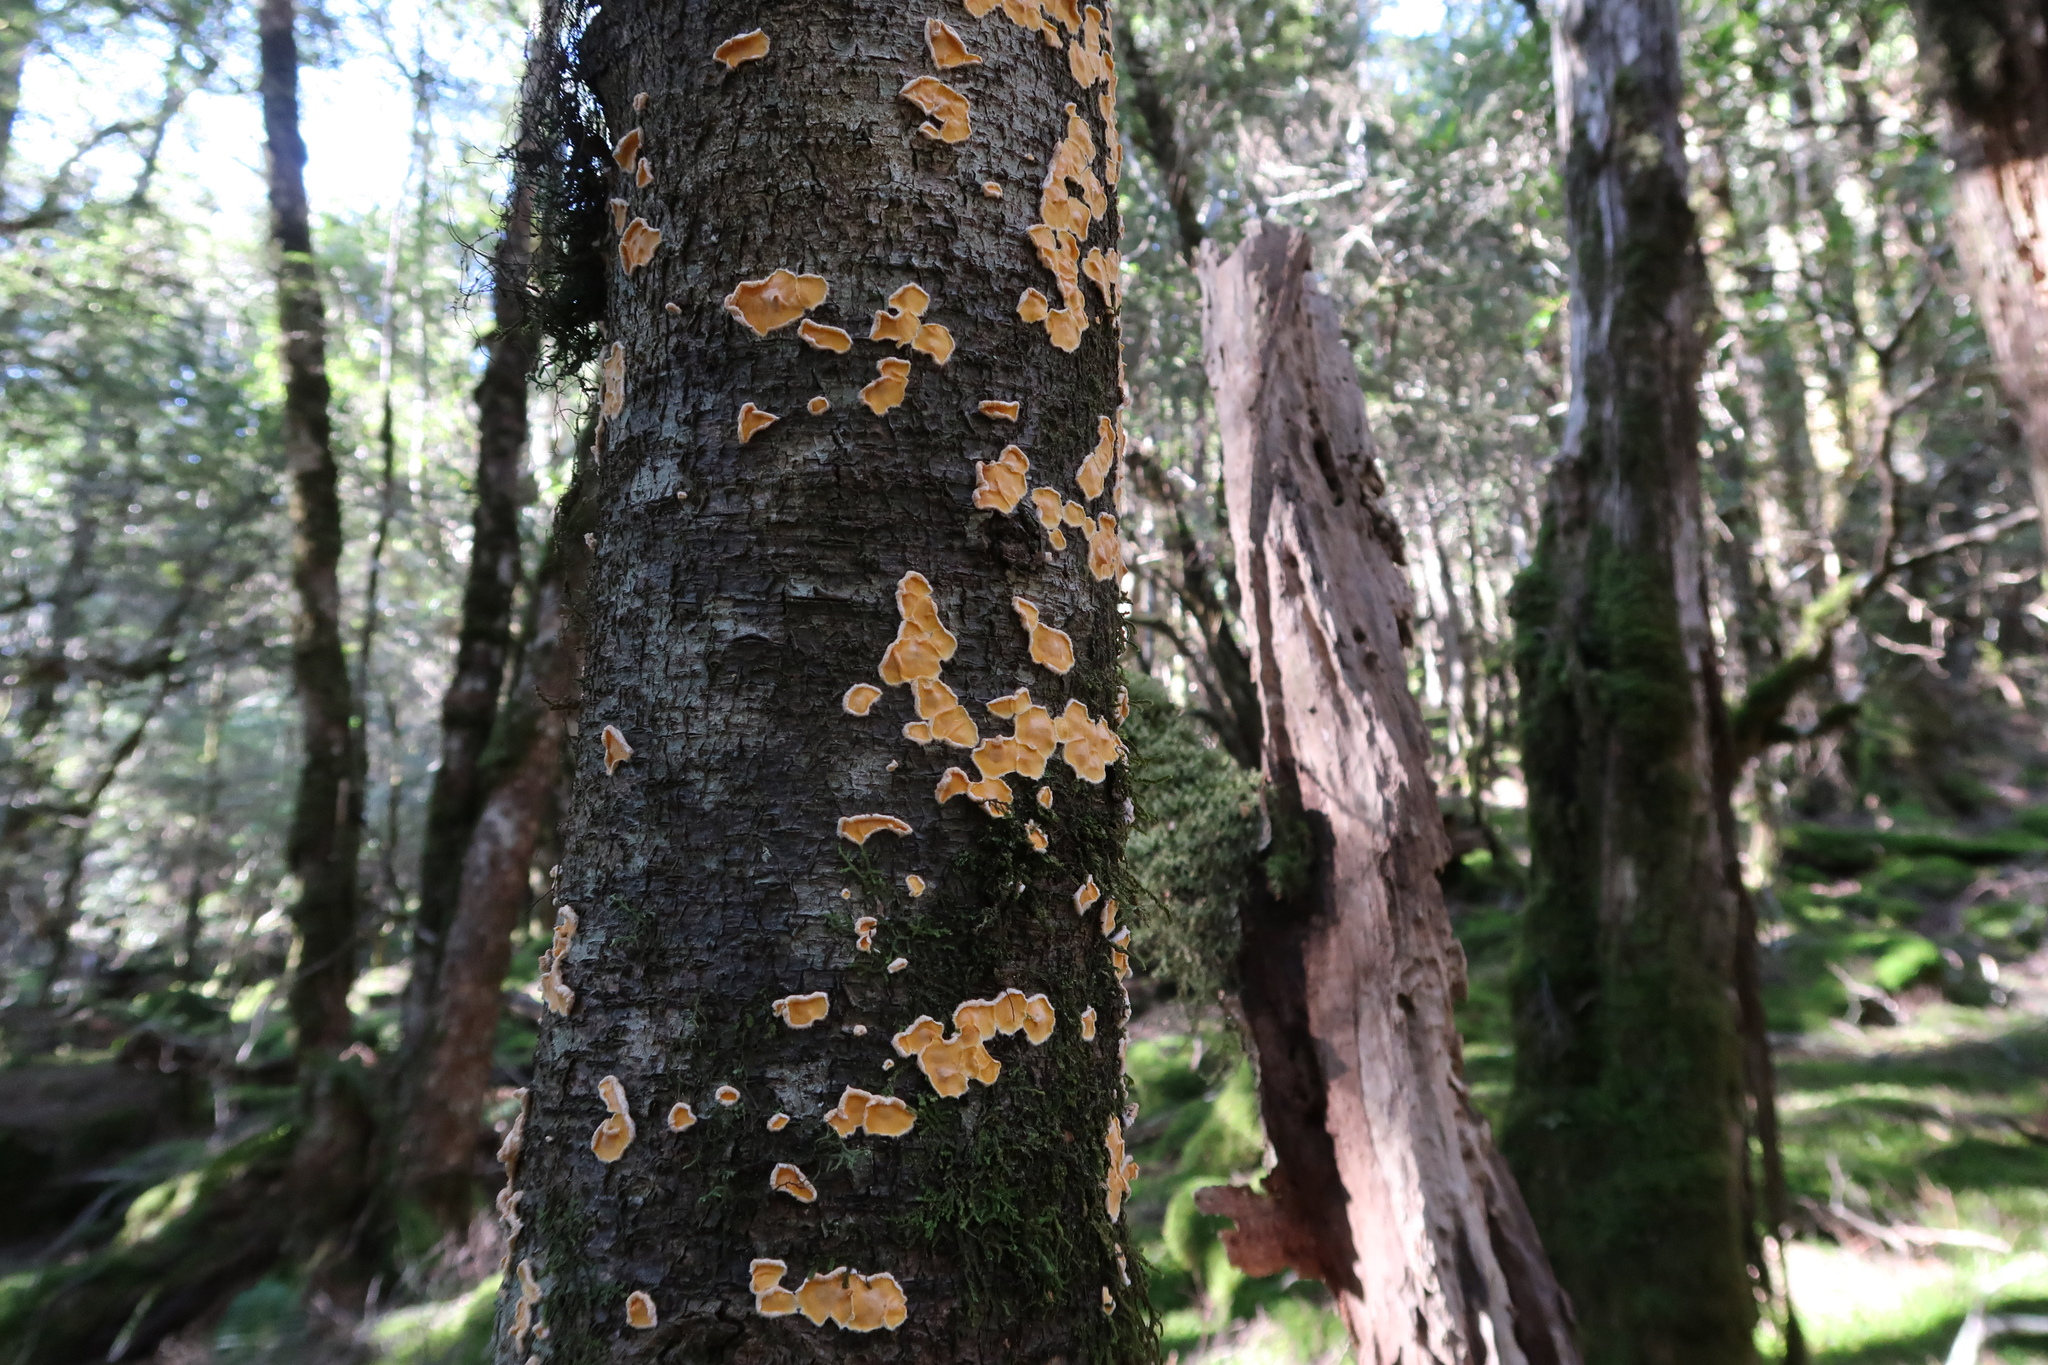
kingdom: Fungi
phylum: Basidiomycota
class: Agaricomycetes
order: Russulales
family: Stereaceae
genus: Stereodiscus
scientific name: Stereodiscus limonisporus
